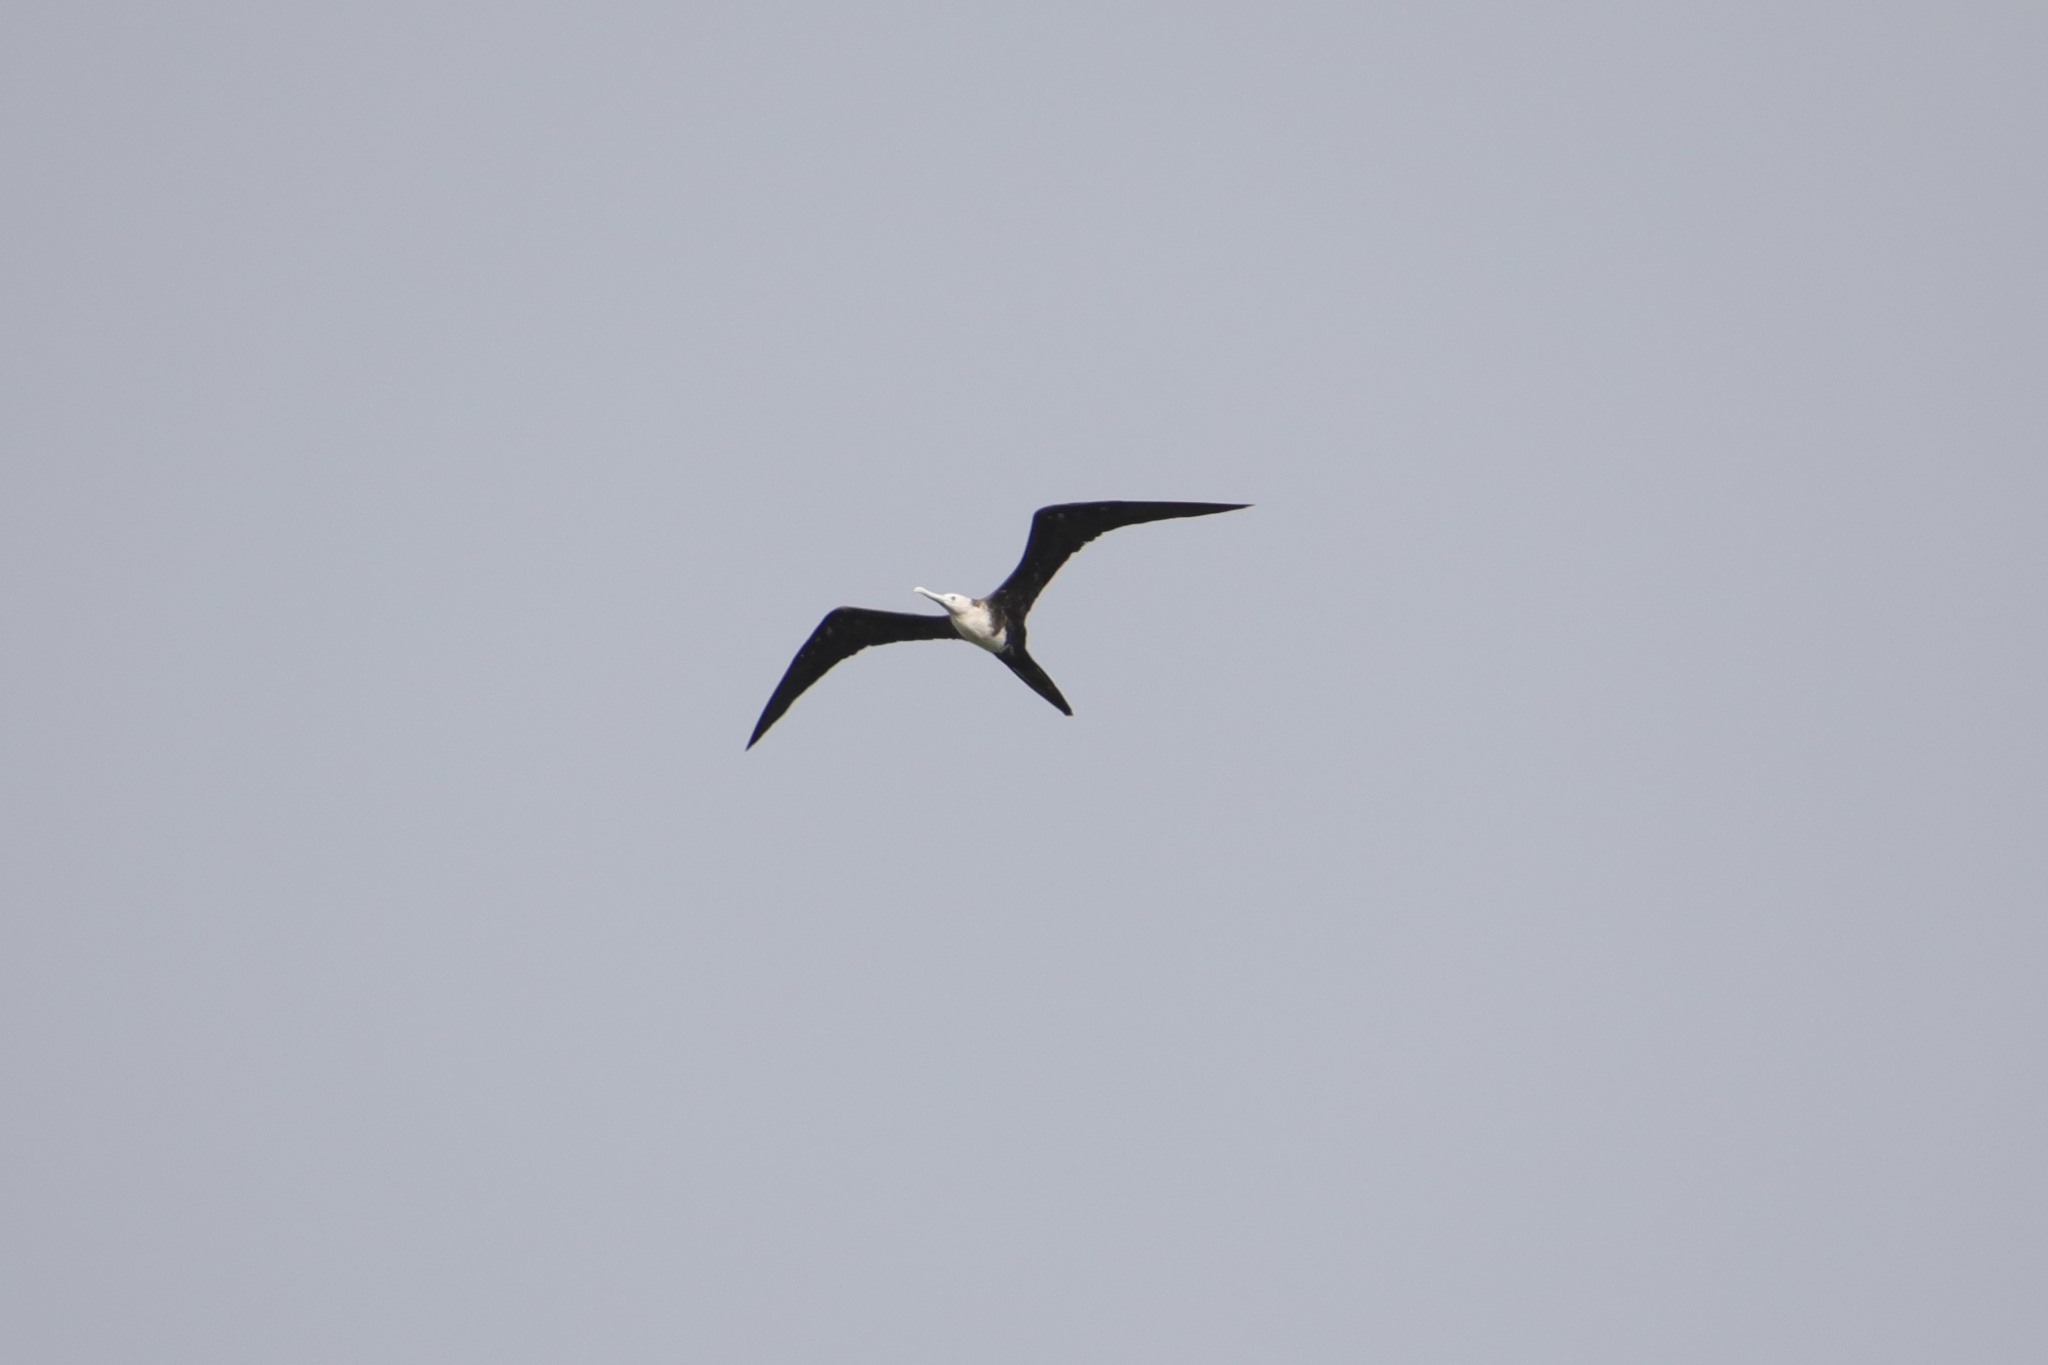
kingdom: Animalia
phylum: Chordata
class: Aves
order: Suliformes
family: Fregatidae
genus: Fregata
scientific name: Fregata magnificens
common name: Magnificent frigatebird
